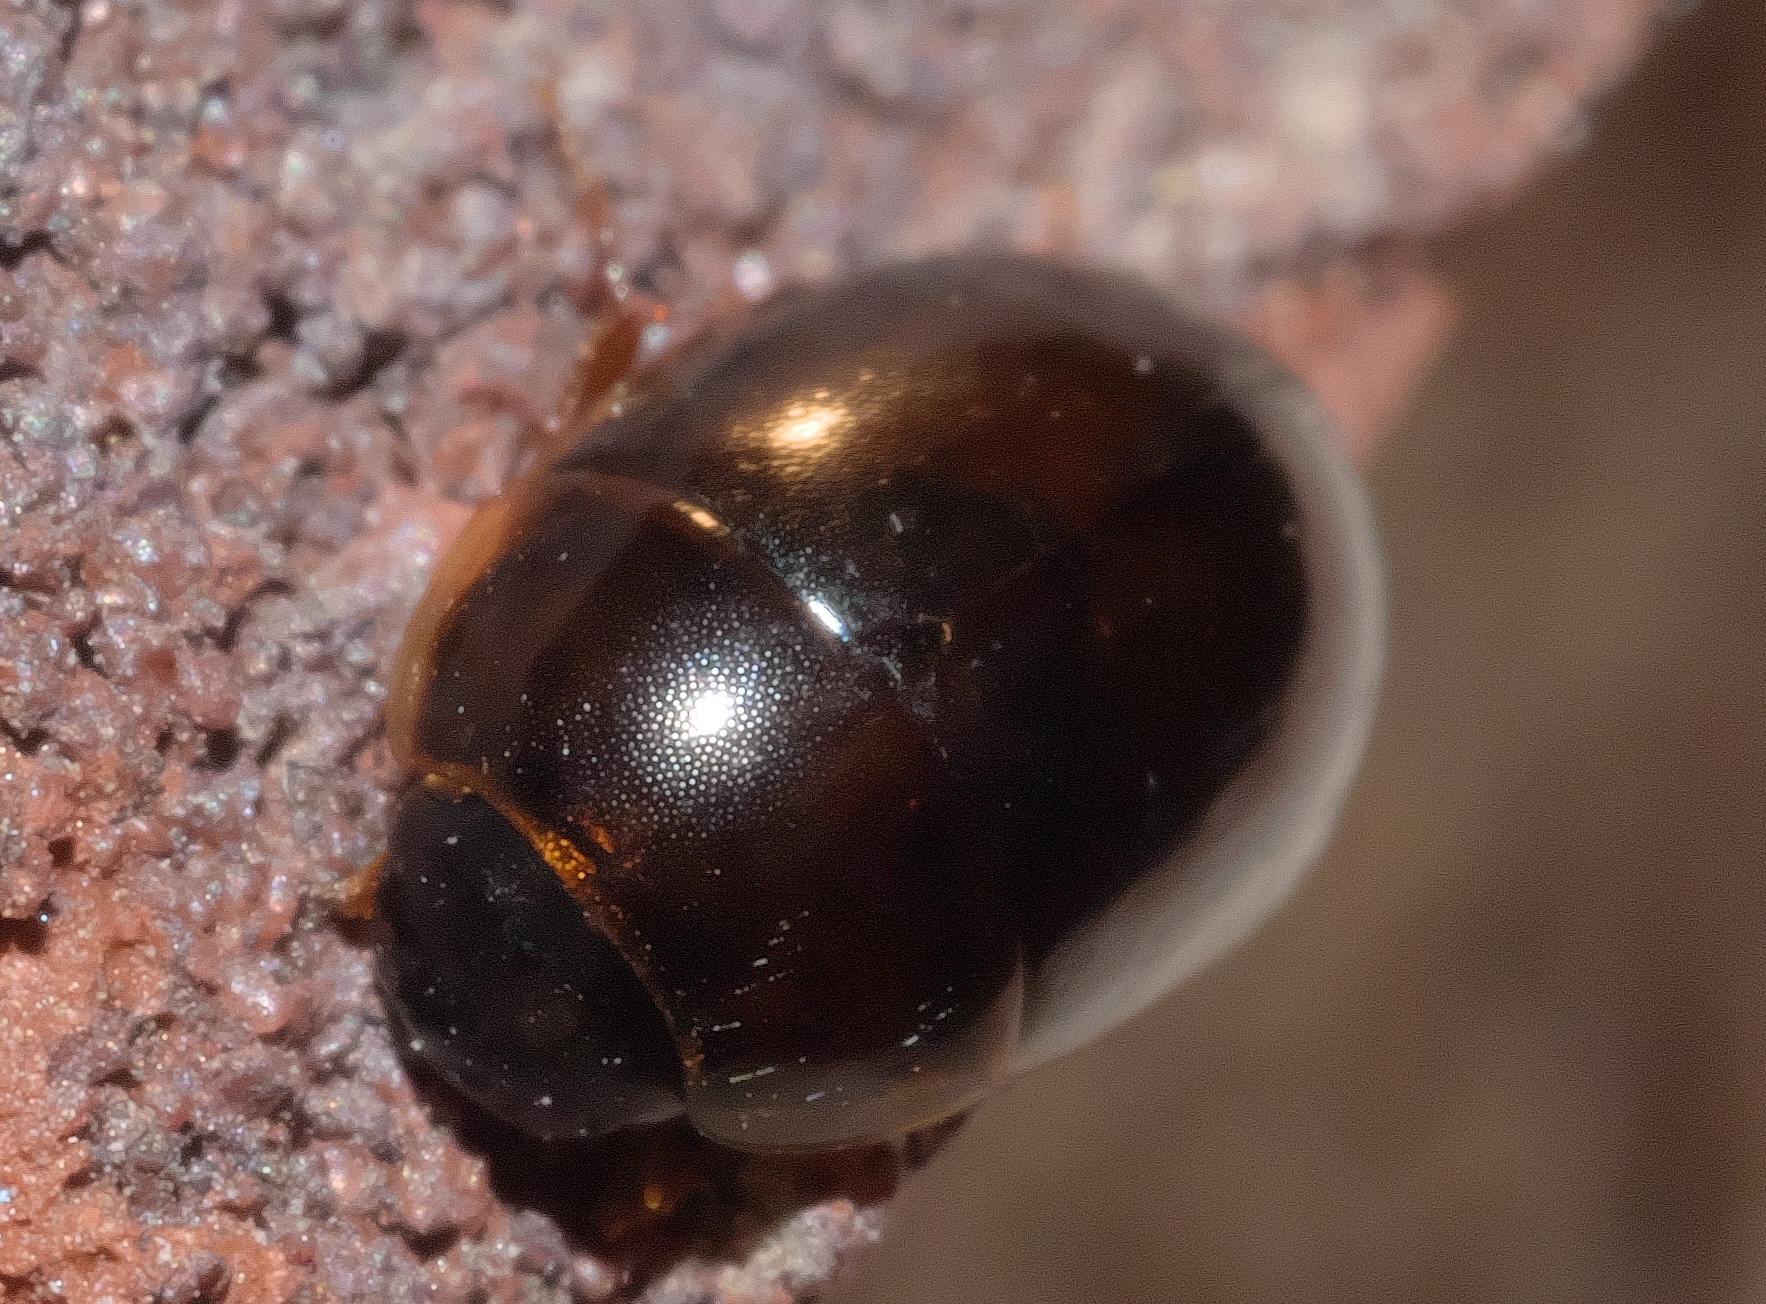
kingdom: Animalia
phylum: Arthropoda
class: Insecta
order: Coleoptera
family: Hydrophilidae
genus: Enochrus
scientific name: Enochrus
